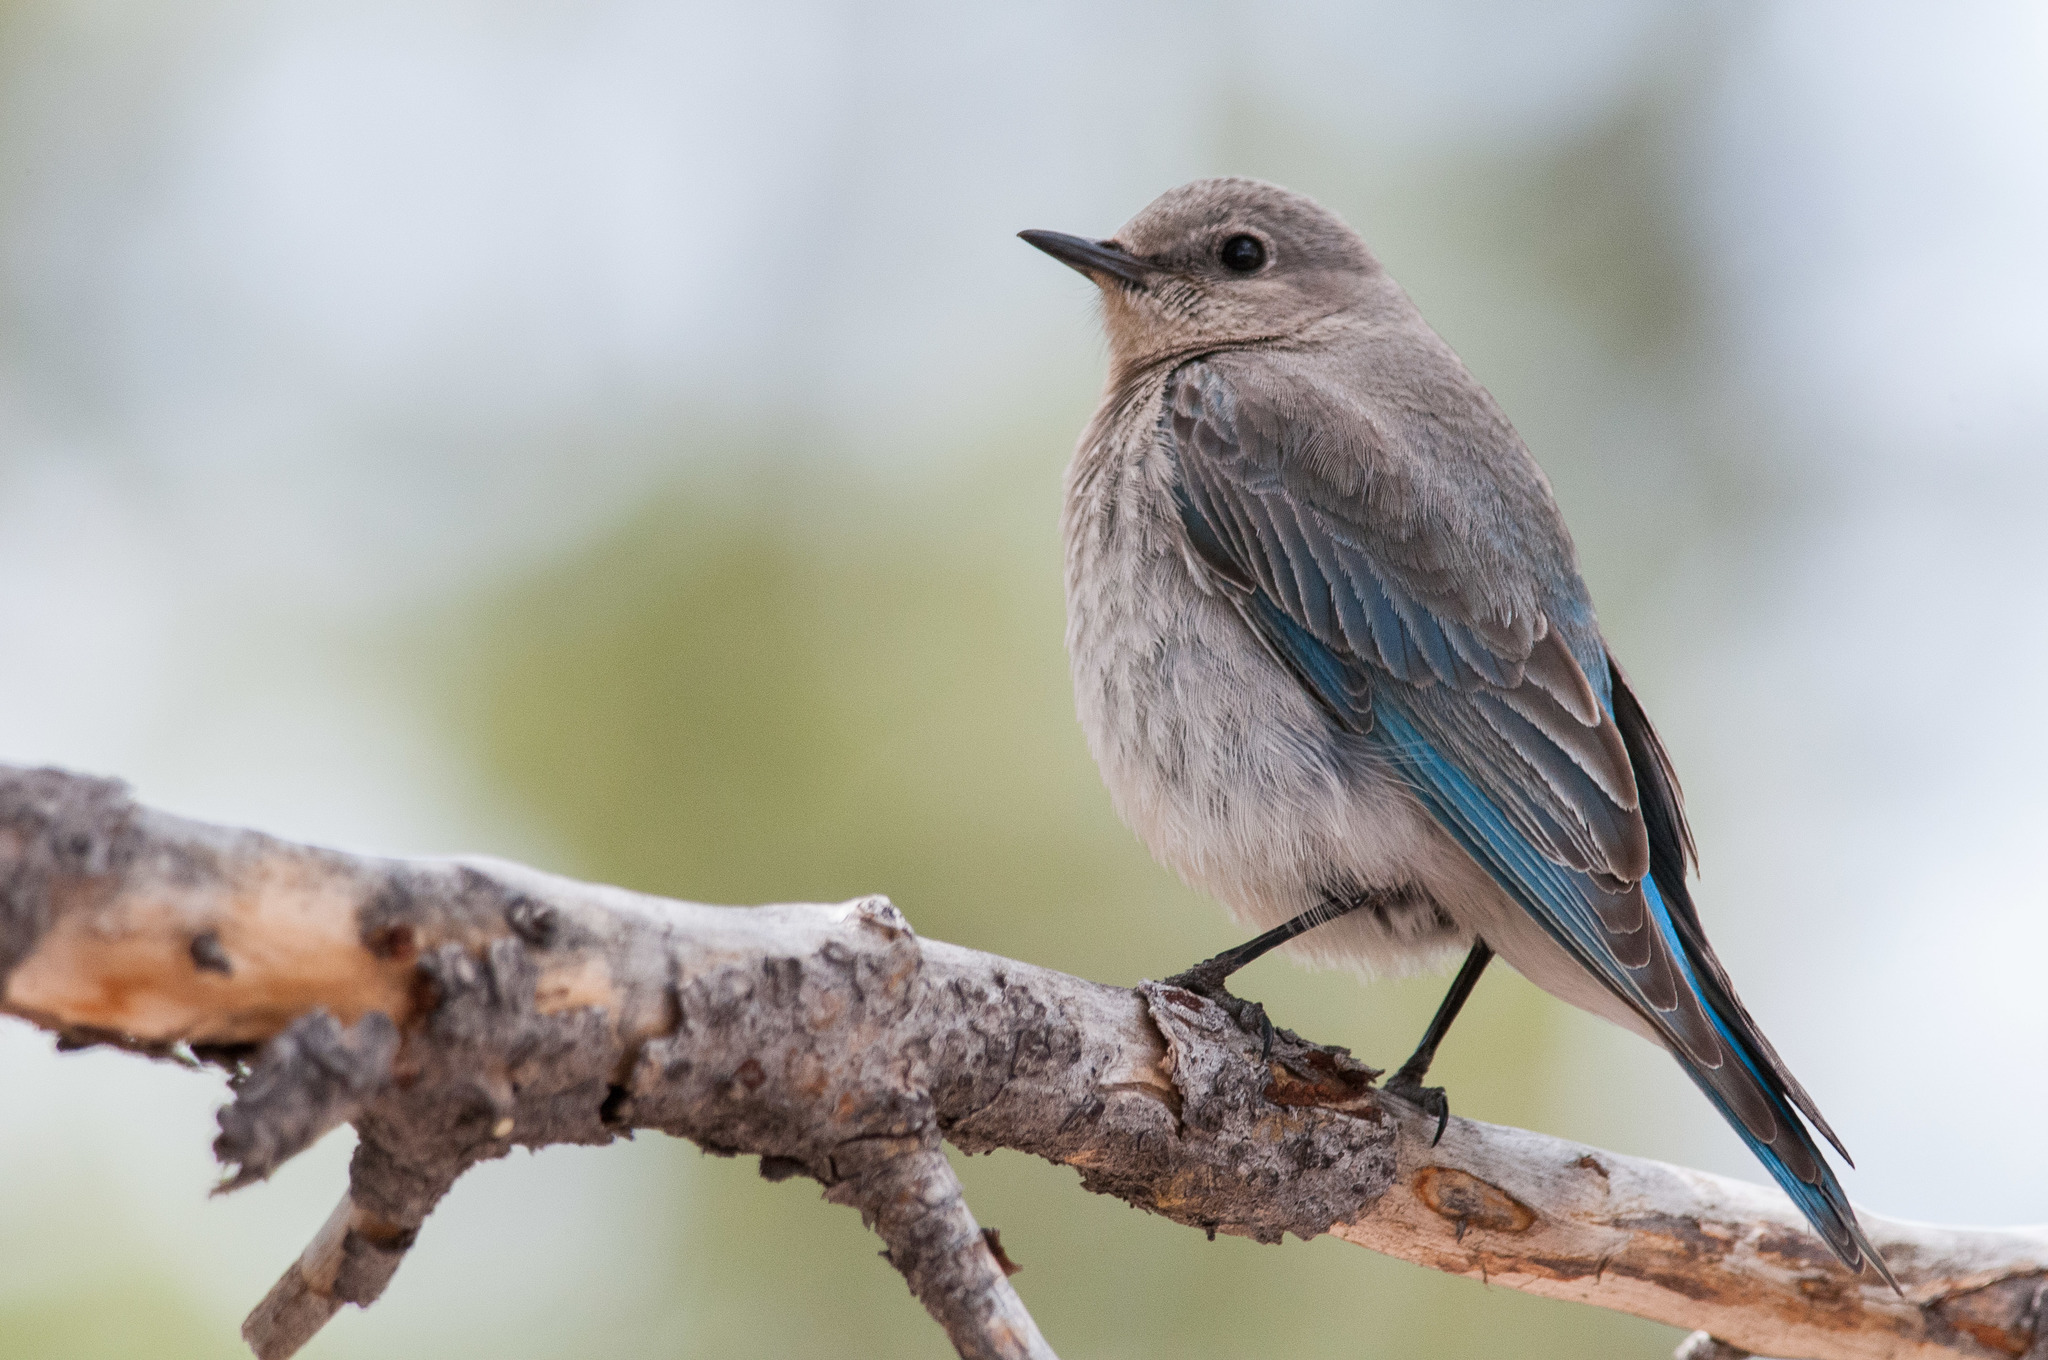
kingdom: Animalia
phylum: Chordata
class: Aves
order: Passeriformes
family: Turdidae
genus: Sialia
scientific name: Sialia currucoides
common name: Mountain bluebird
